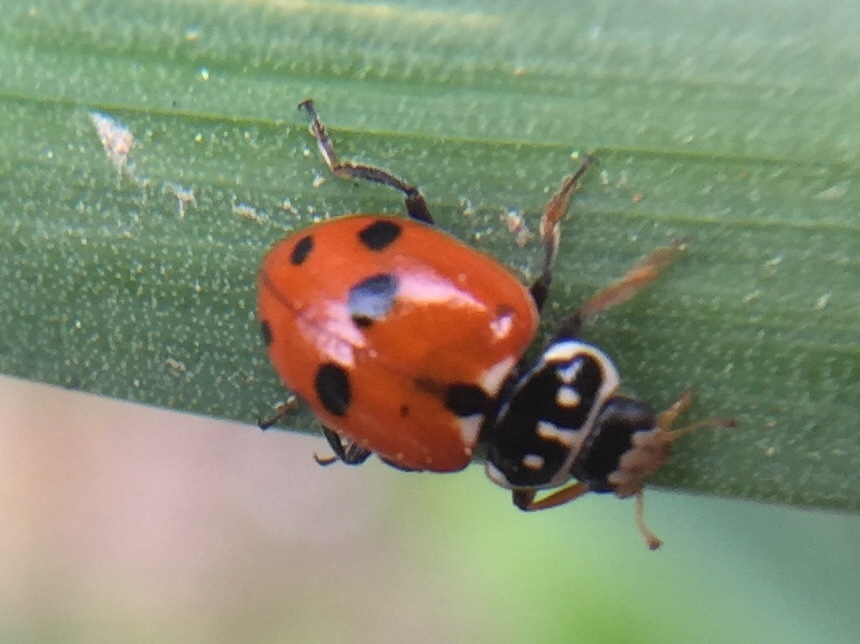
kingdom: Animalia
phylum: Arthropoda
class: Insecta
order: Coleoptera
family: Coccinellidae
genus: Hippodamia
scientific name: Hippodamia variegata
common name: Ladybird beetle
